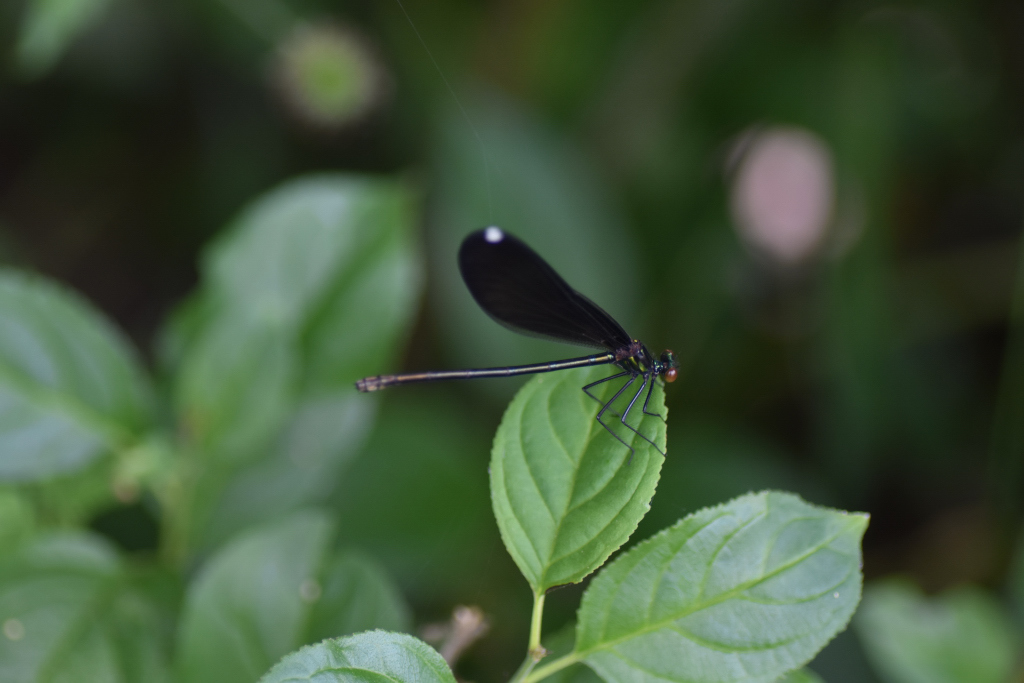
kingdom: Animalia
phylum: Arthropoda
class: Insecta
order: Odonata
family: Calopterygidae
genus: Calopteryx
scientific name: Calopteryx maculata
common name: Ebony jewelwing
